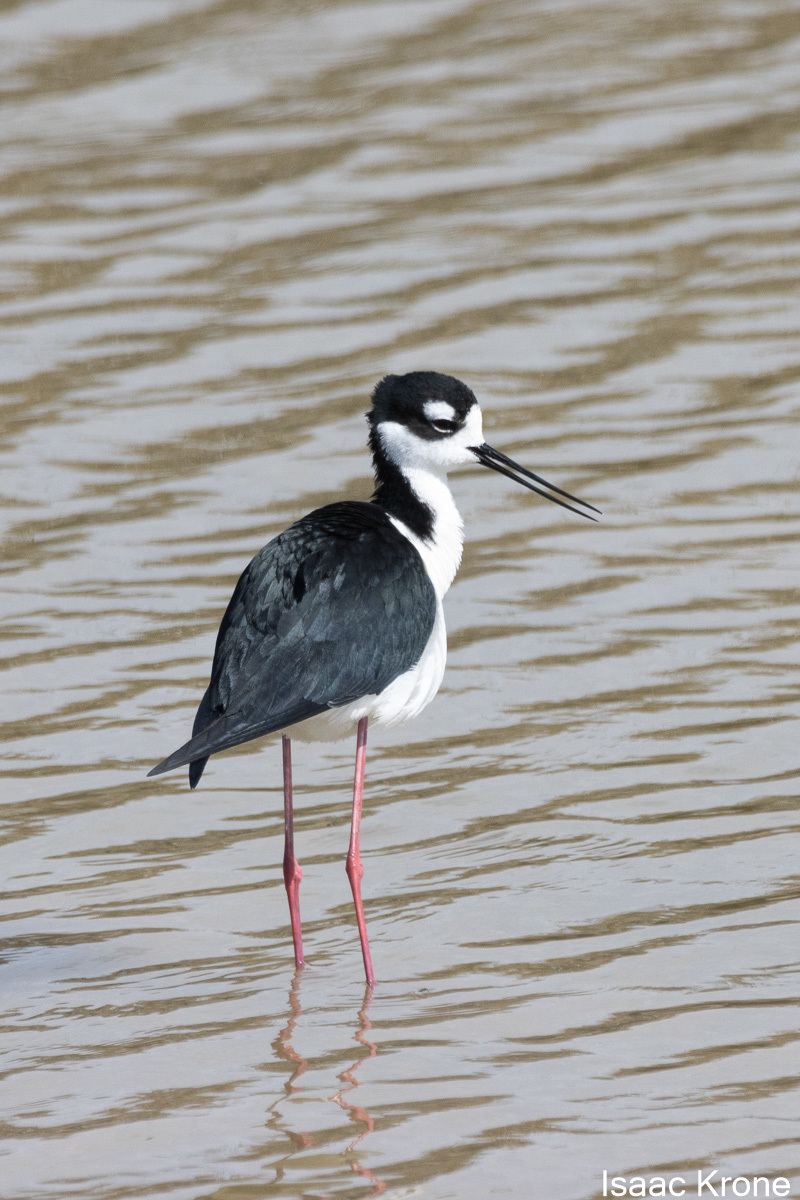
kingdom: Animalia
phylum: Chordata
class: Aves
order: Charadriiformes
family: Recurvirostridae
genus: Himantopus
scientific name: Himantopus mexicanus
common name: Black-necked stilt
